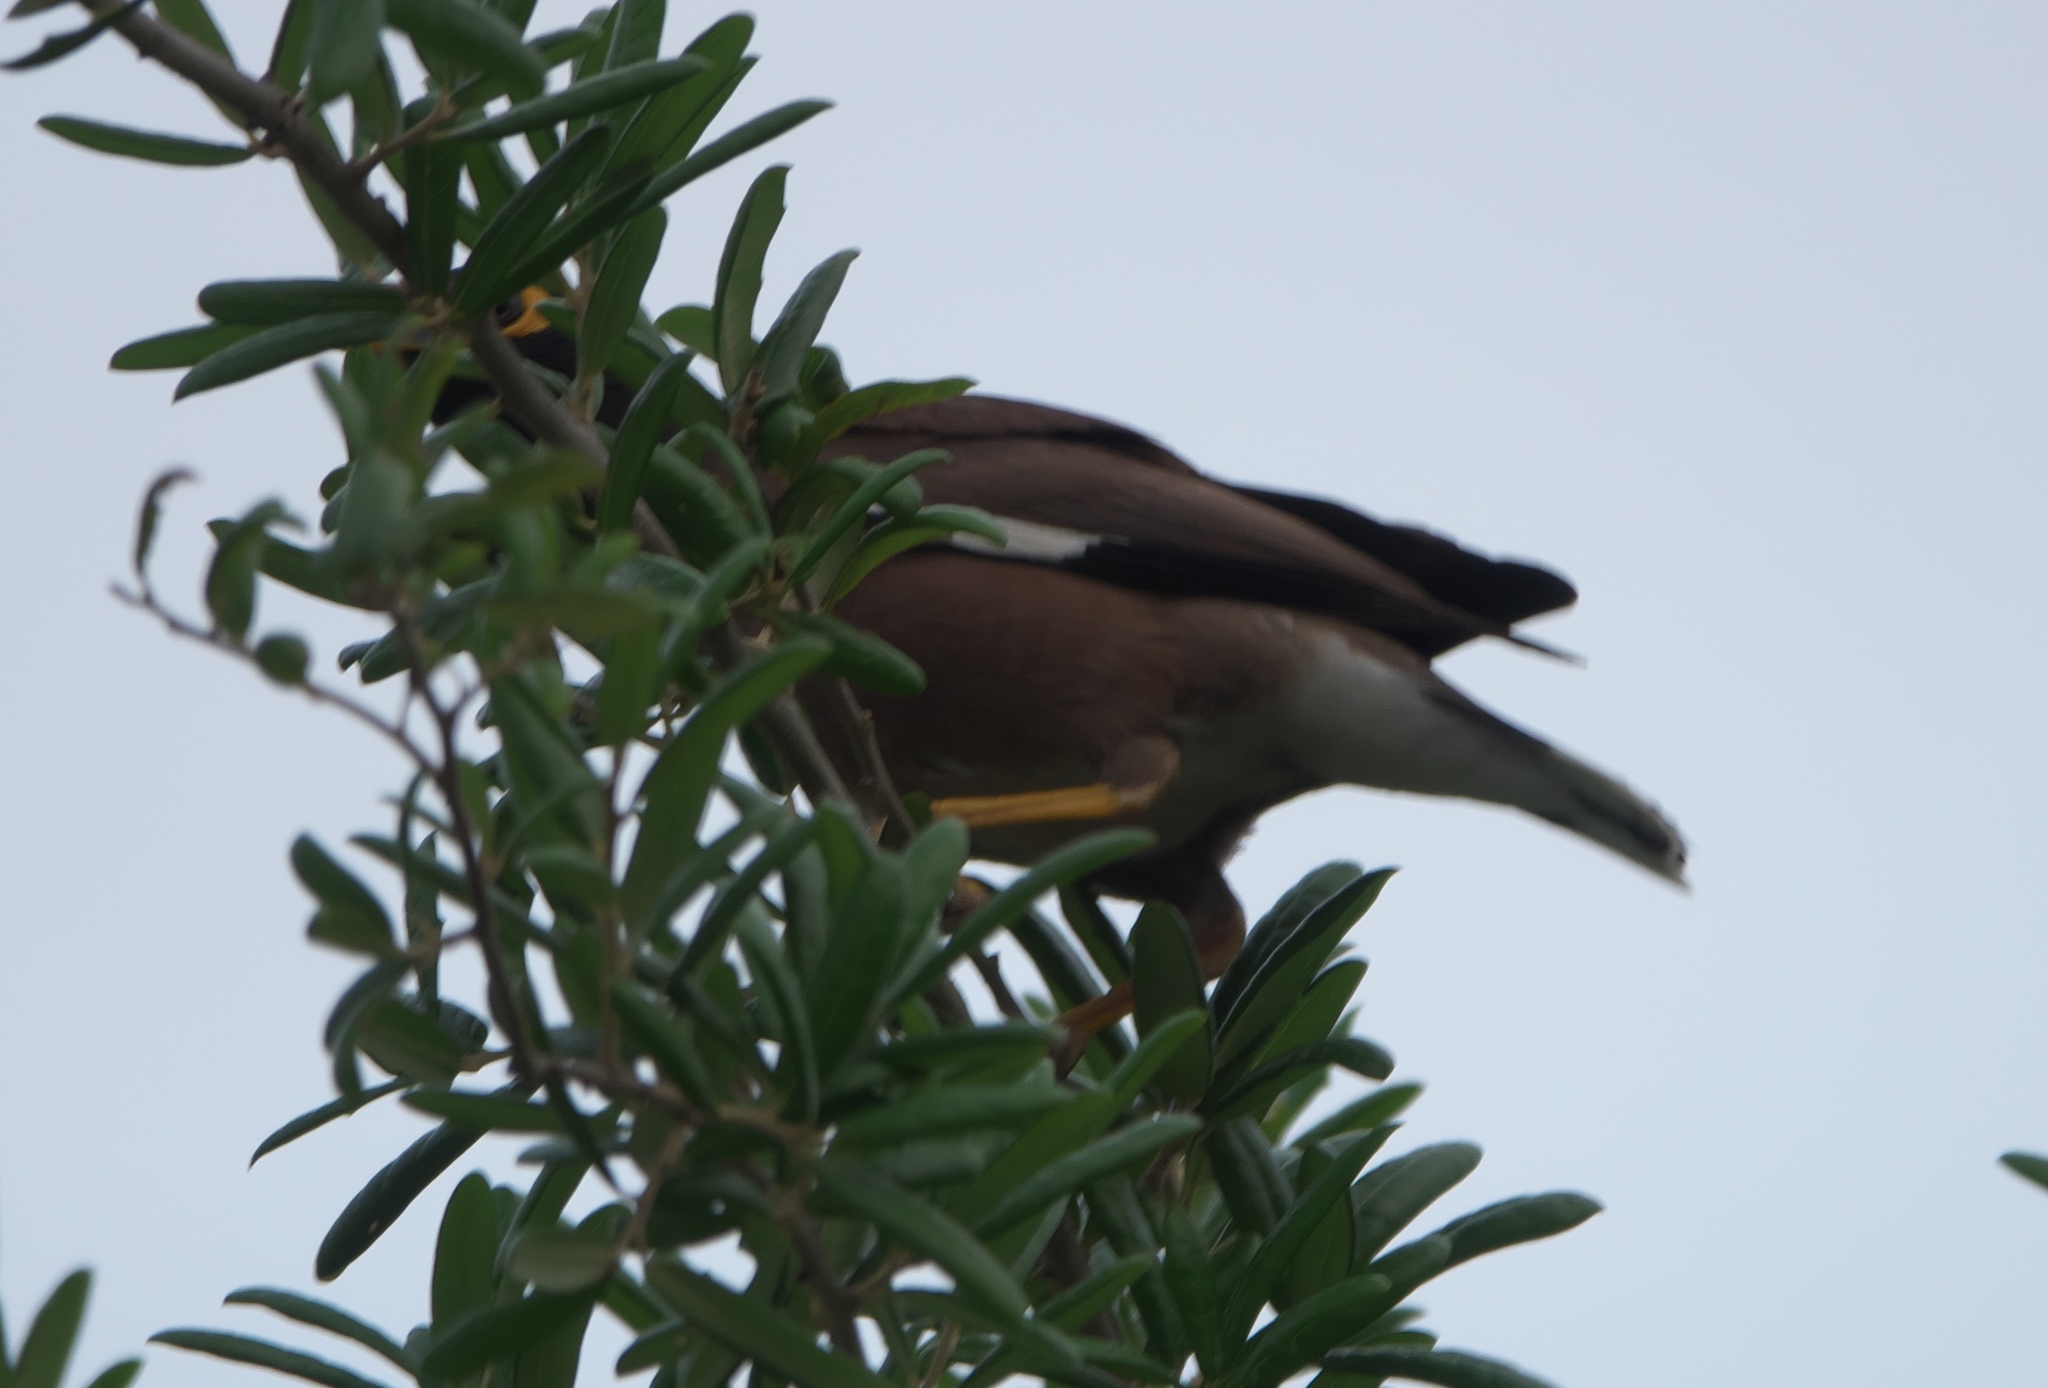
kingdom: Animalia
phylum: Chordata
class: Aves
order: Passeriformes
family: Sturnidae
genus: Acridotheres
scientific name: Acridotheres tristis
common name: Common myna
